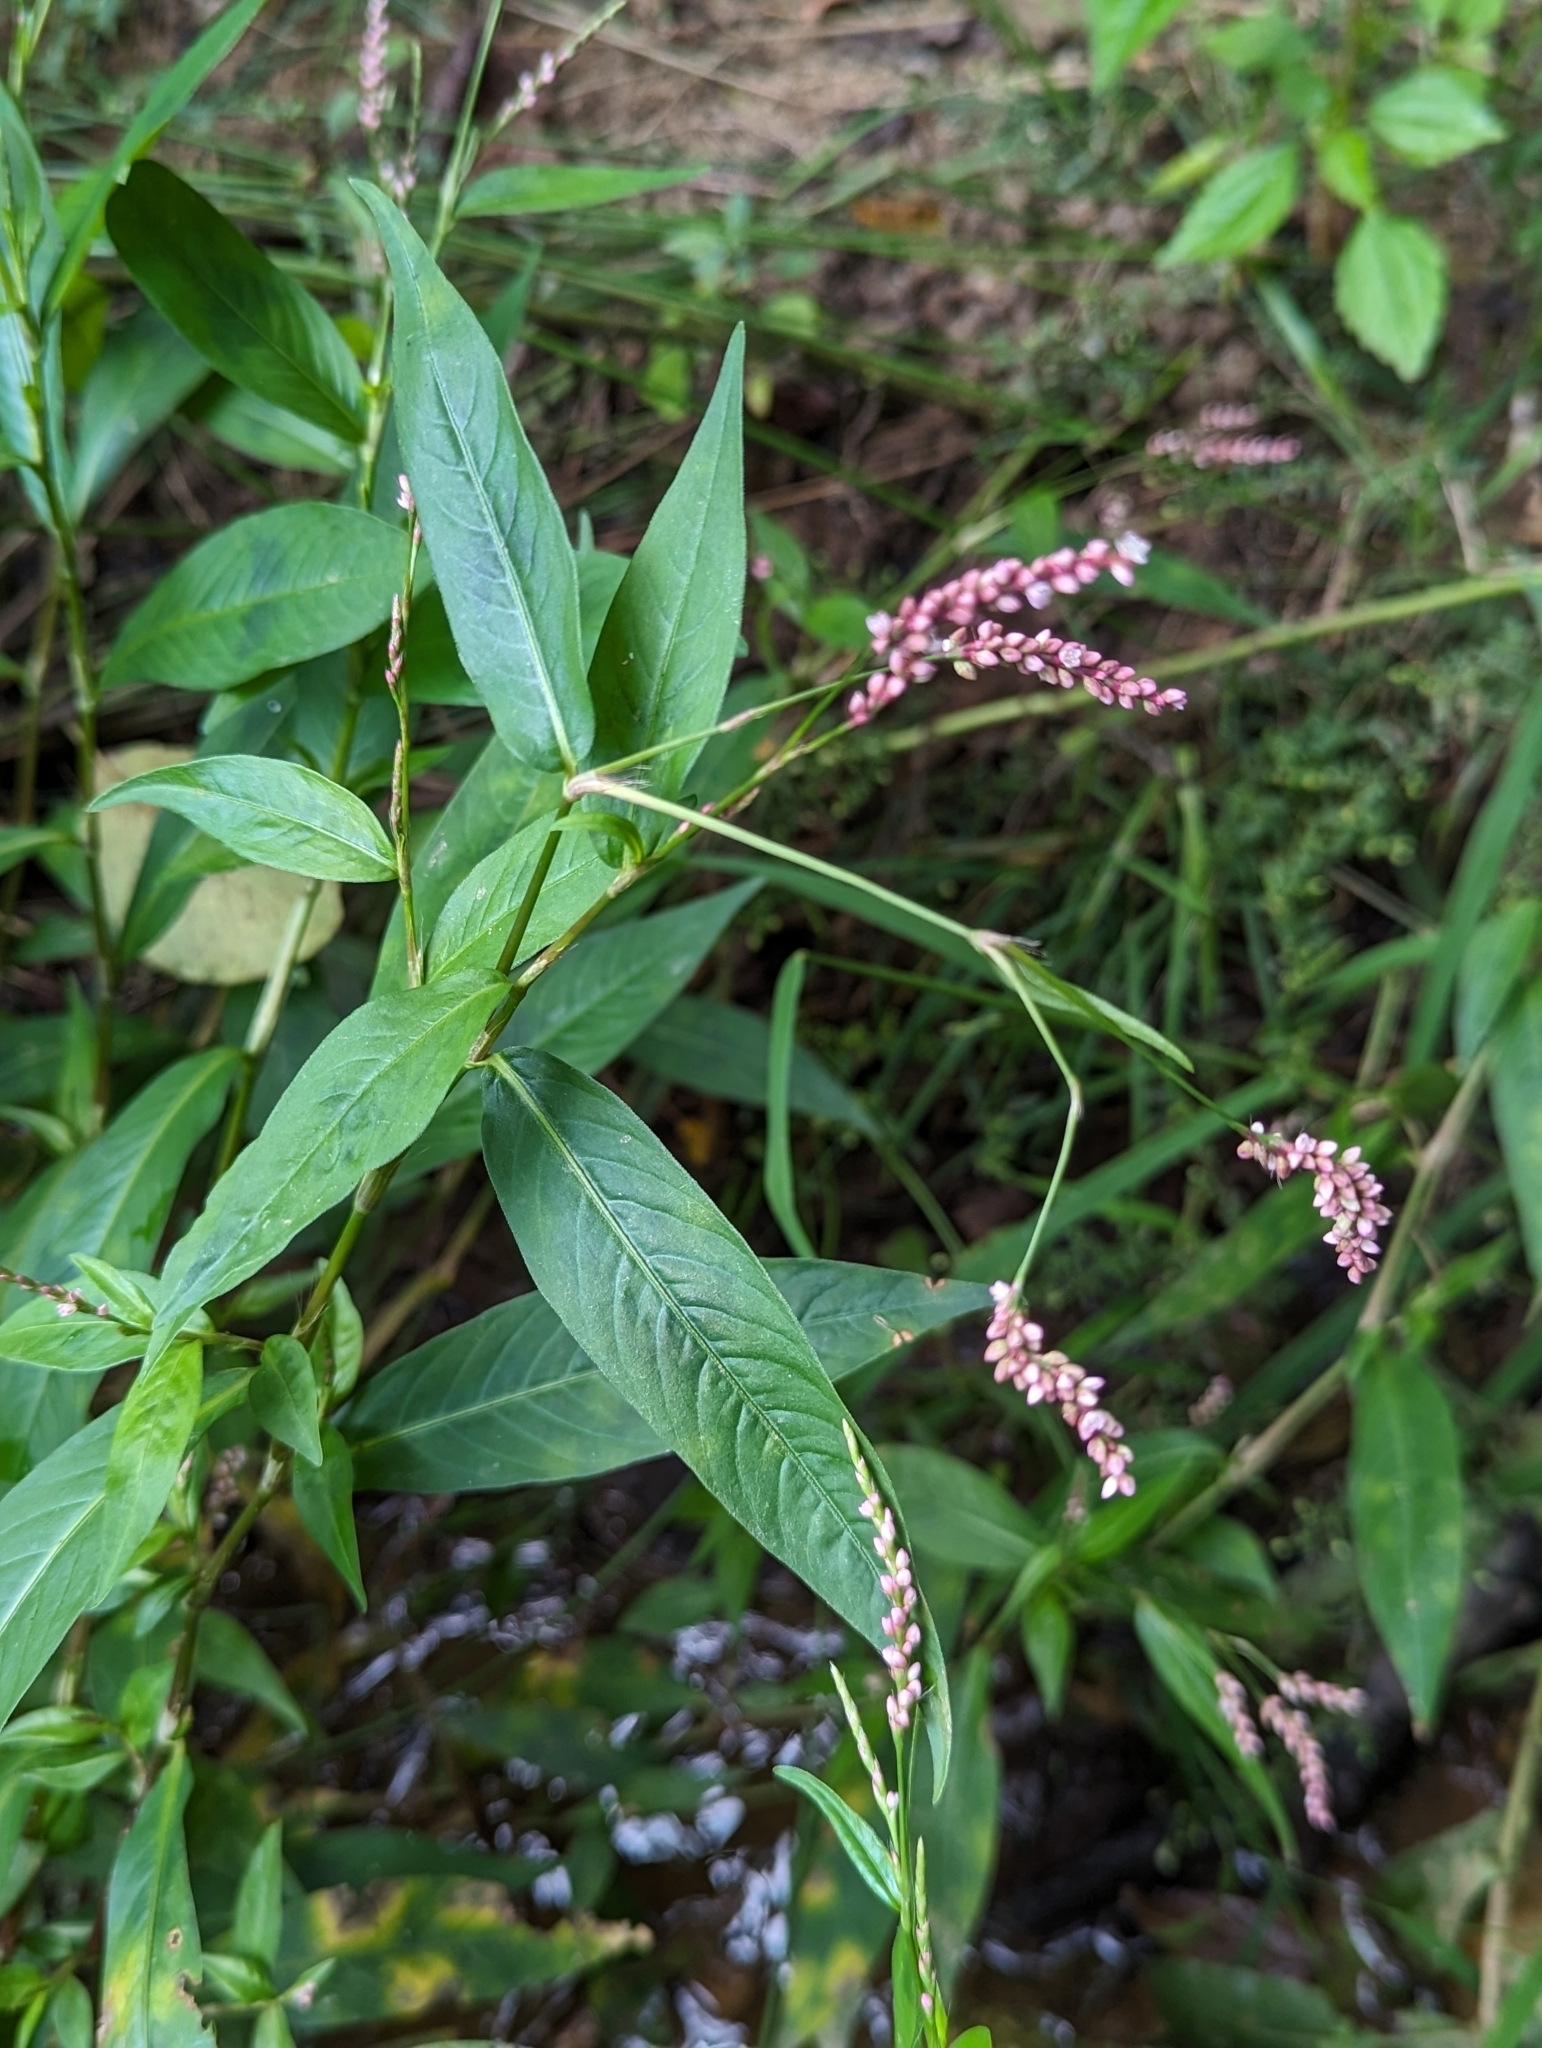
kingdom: Plantae
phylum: Tracheophyta
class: Magnoliopsida
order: Caryophyllales
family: Polygonaceae
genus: Persicaria
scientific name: Persicaria longiseta
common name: Bristly lady's-thumb
